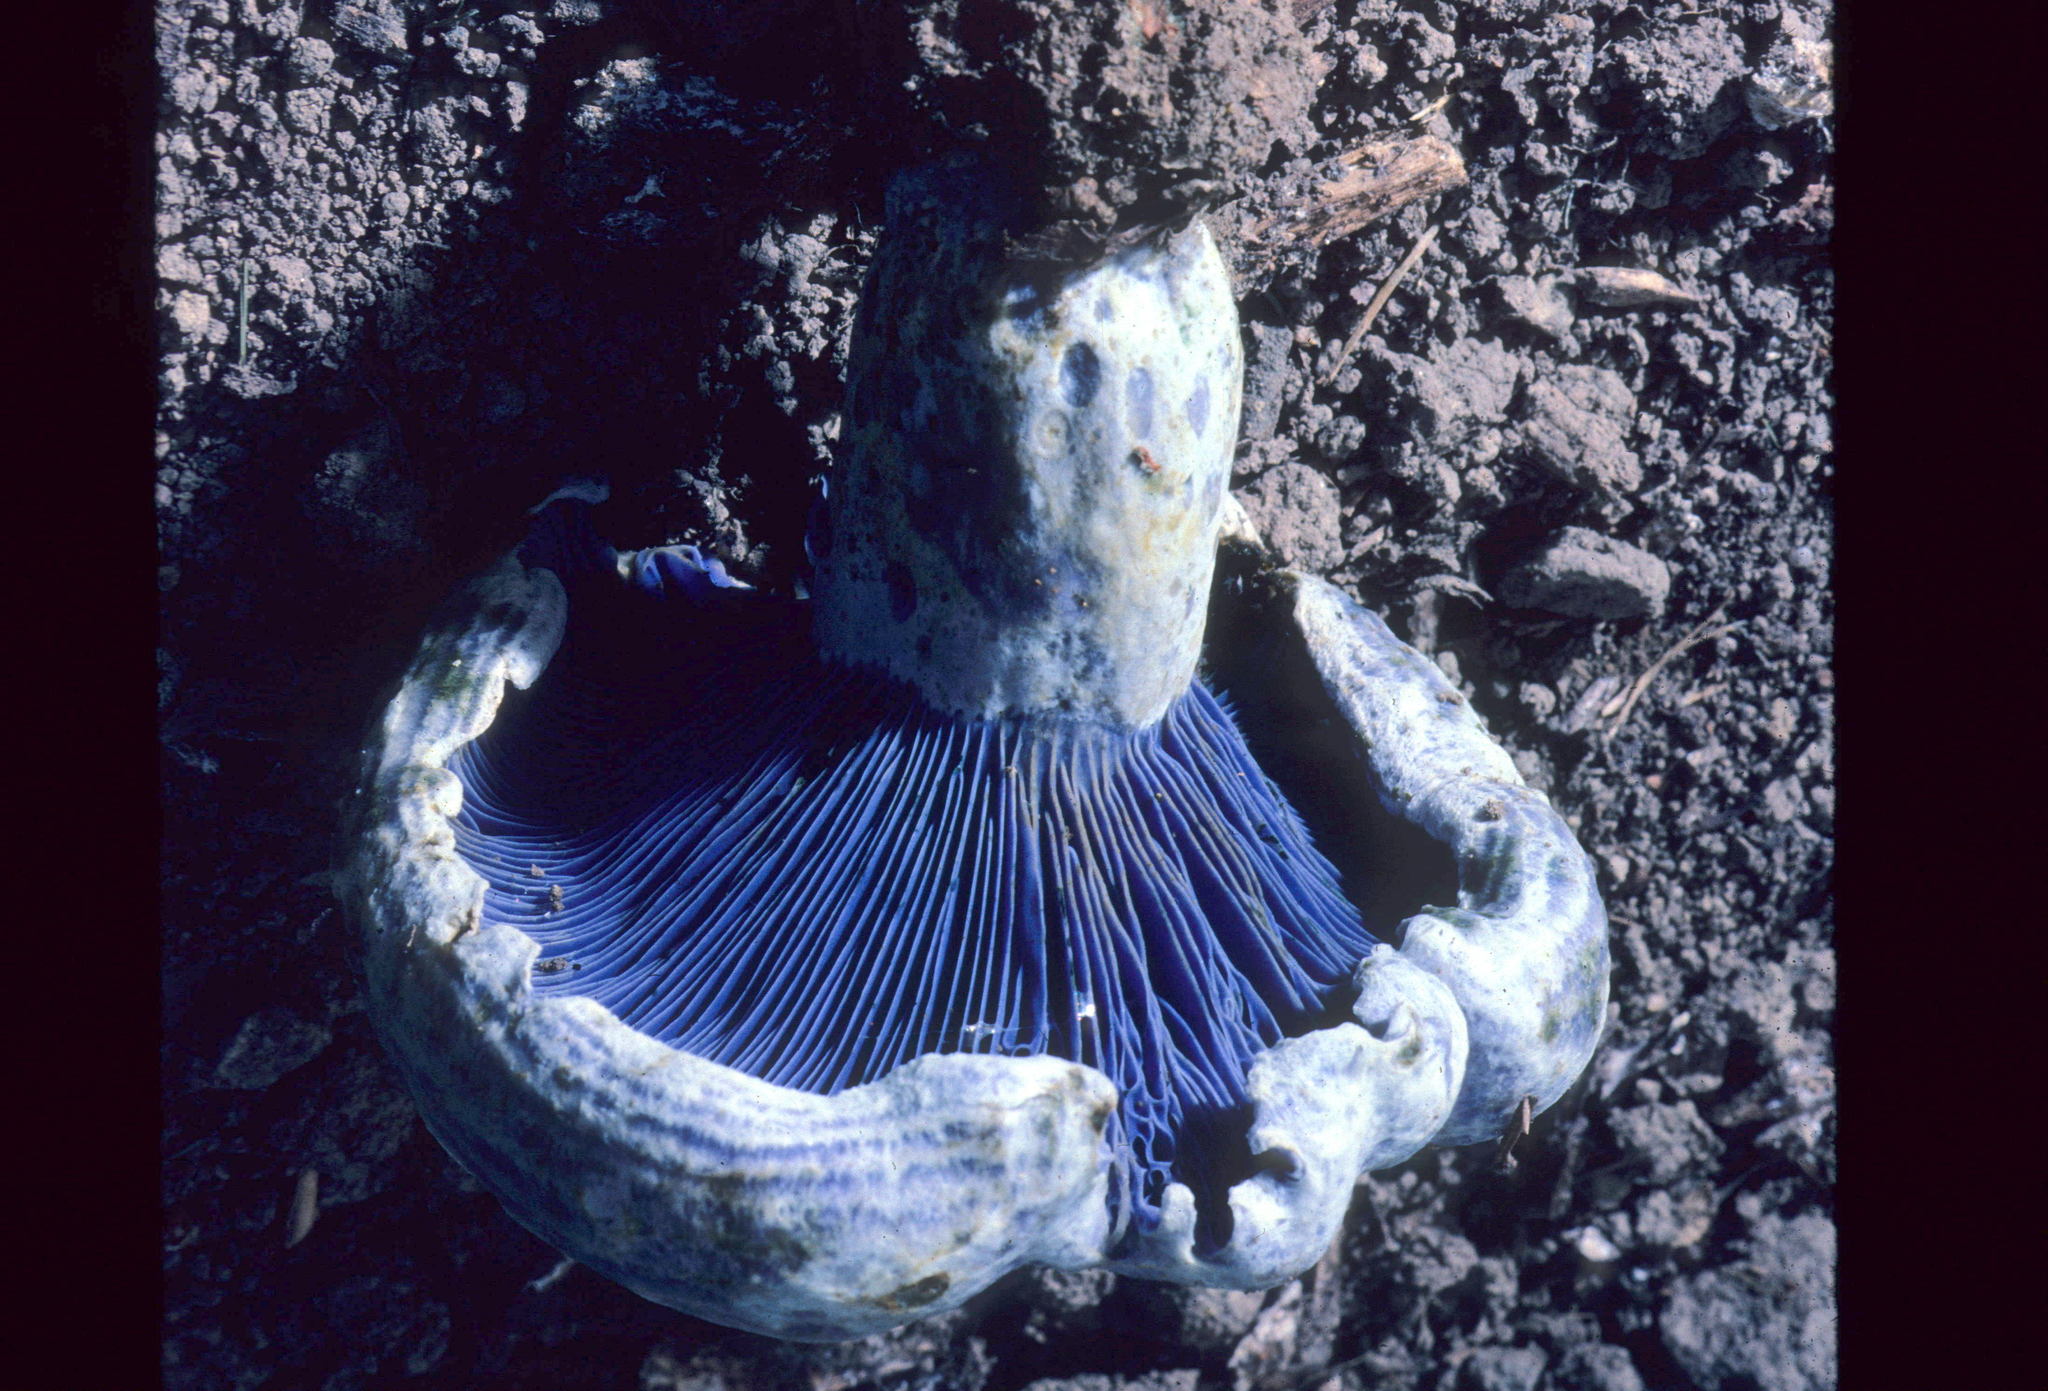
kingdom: Fungi
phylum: Basidiomycota
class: Agaricomycetes
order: Russulales
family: Russulaceae
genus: Lactarius
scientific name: Lactarius indigo
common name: Indigo milk cap
